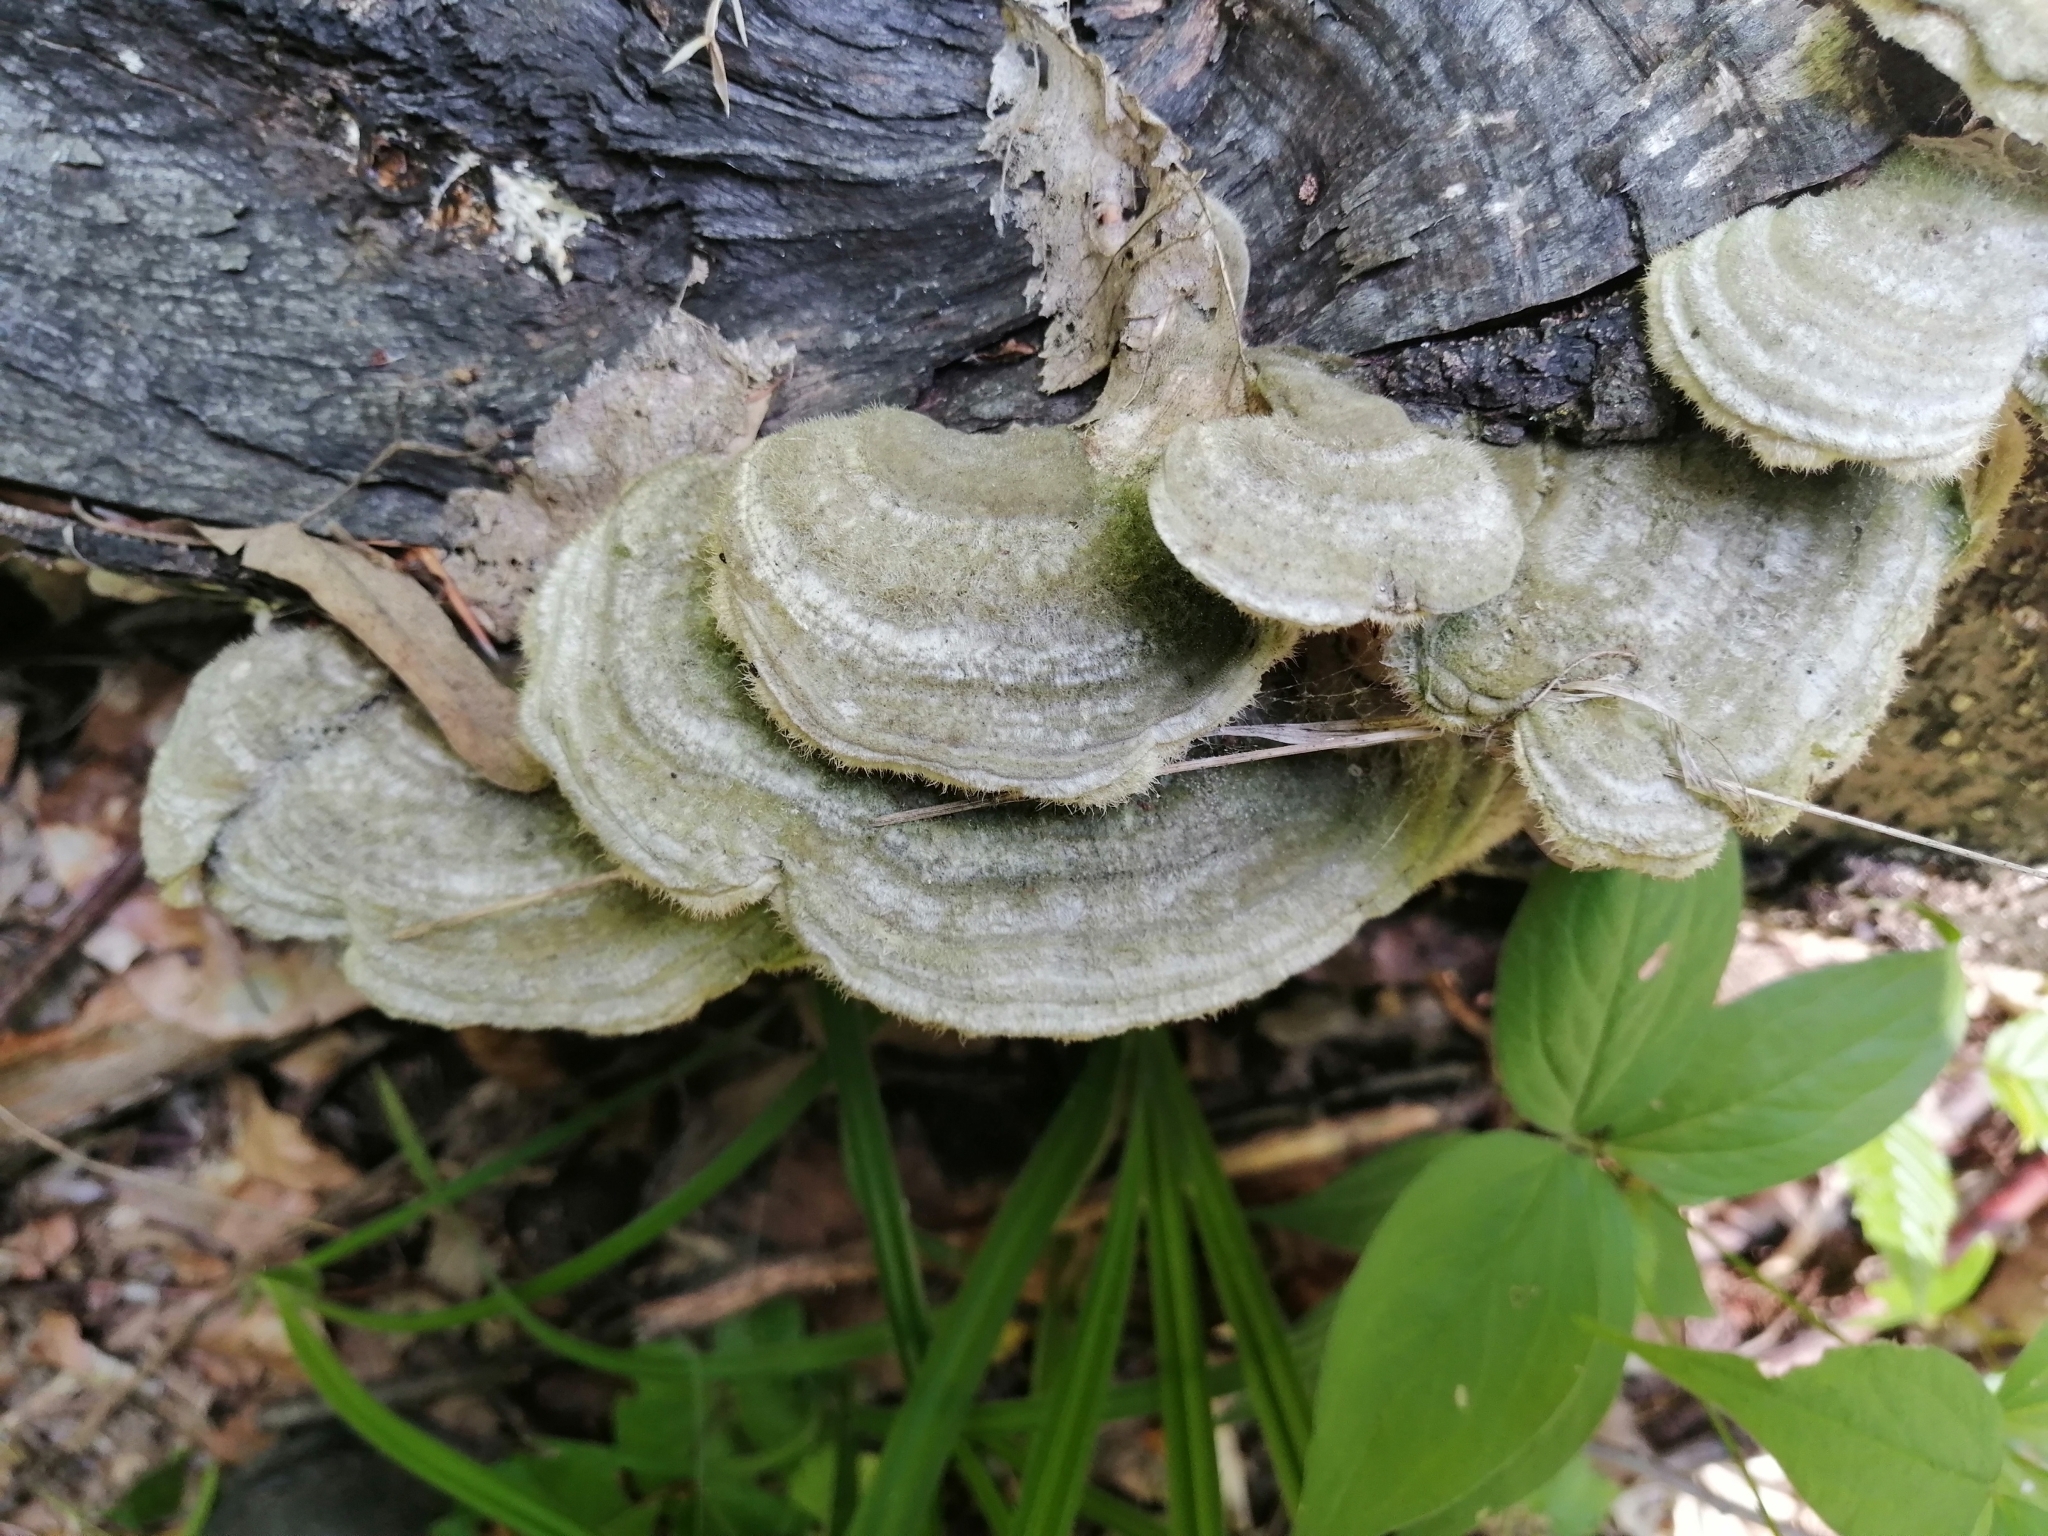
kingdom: Fungi
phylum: Basidiomycota
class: Agaricomycetes
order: Polyporales
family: Polyporaceae
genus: Trametes
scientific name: Trametes hirsuta
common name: Hairy bracket
